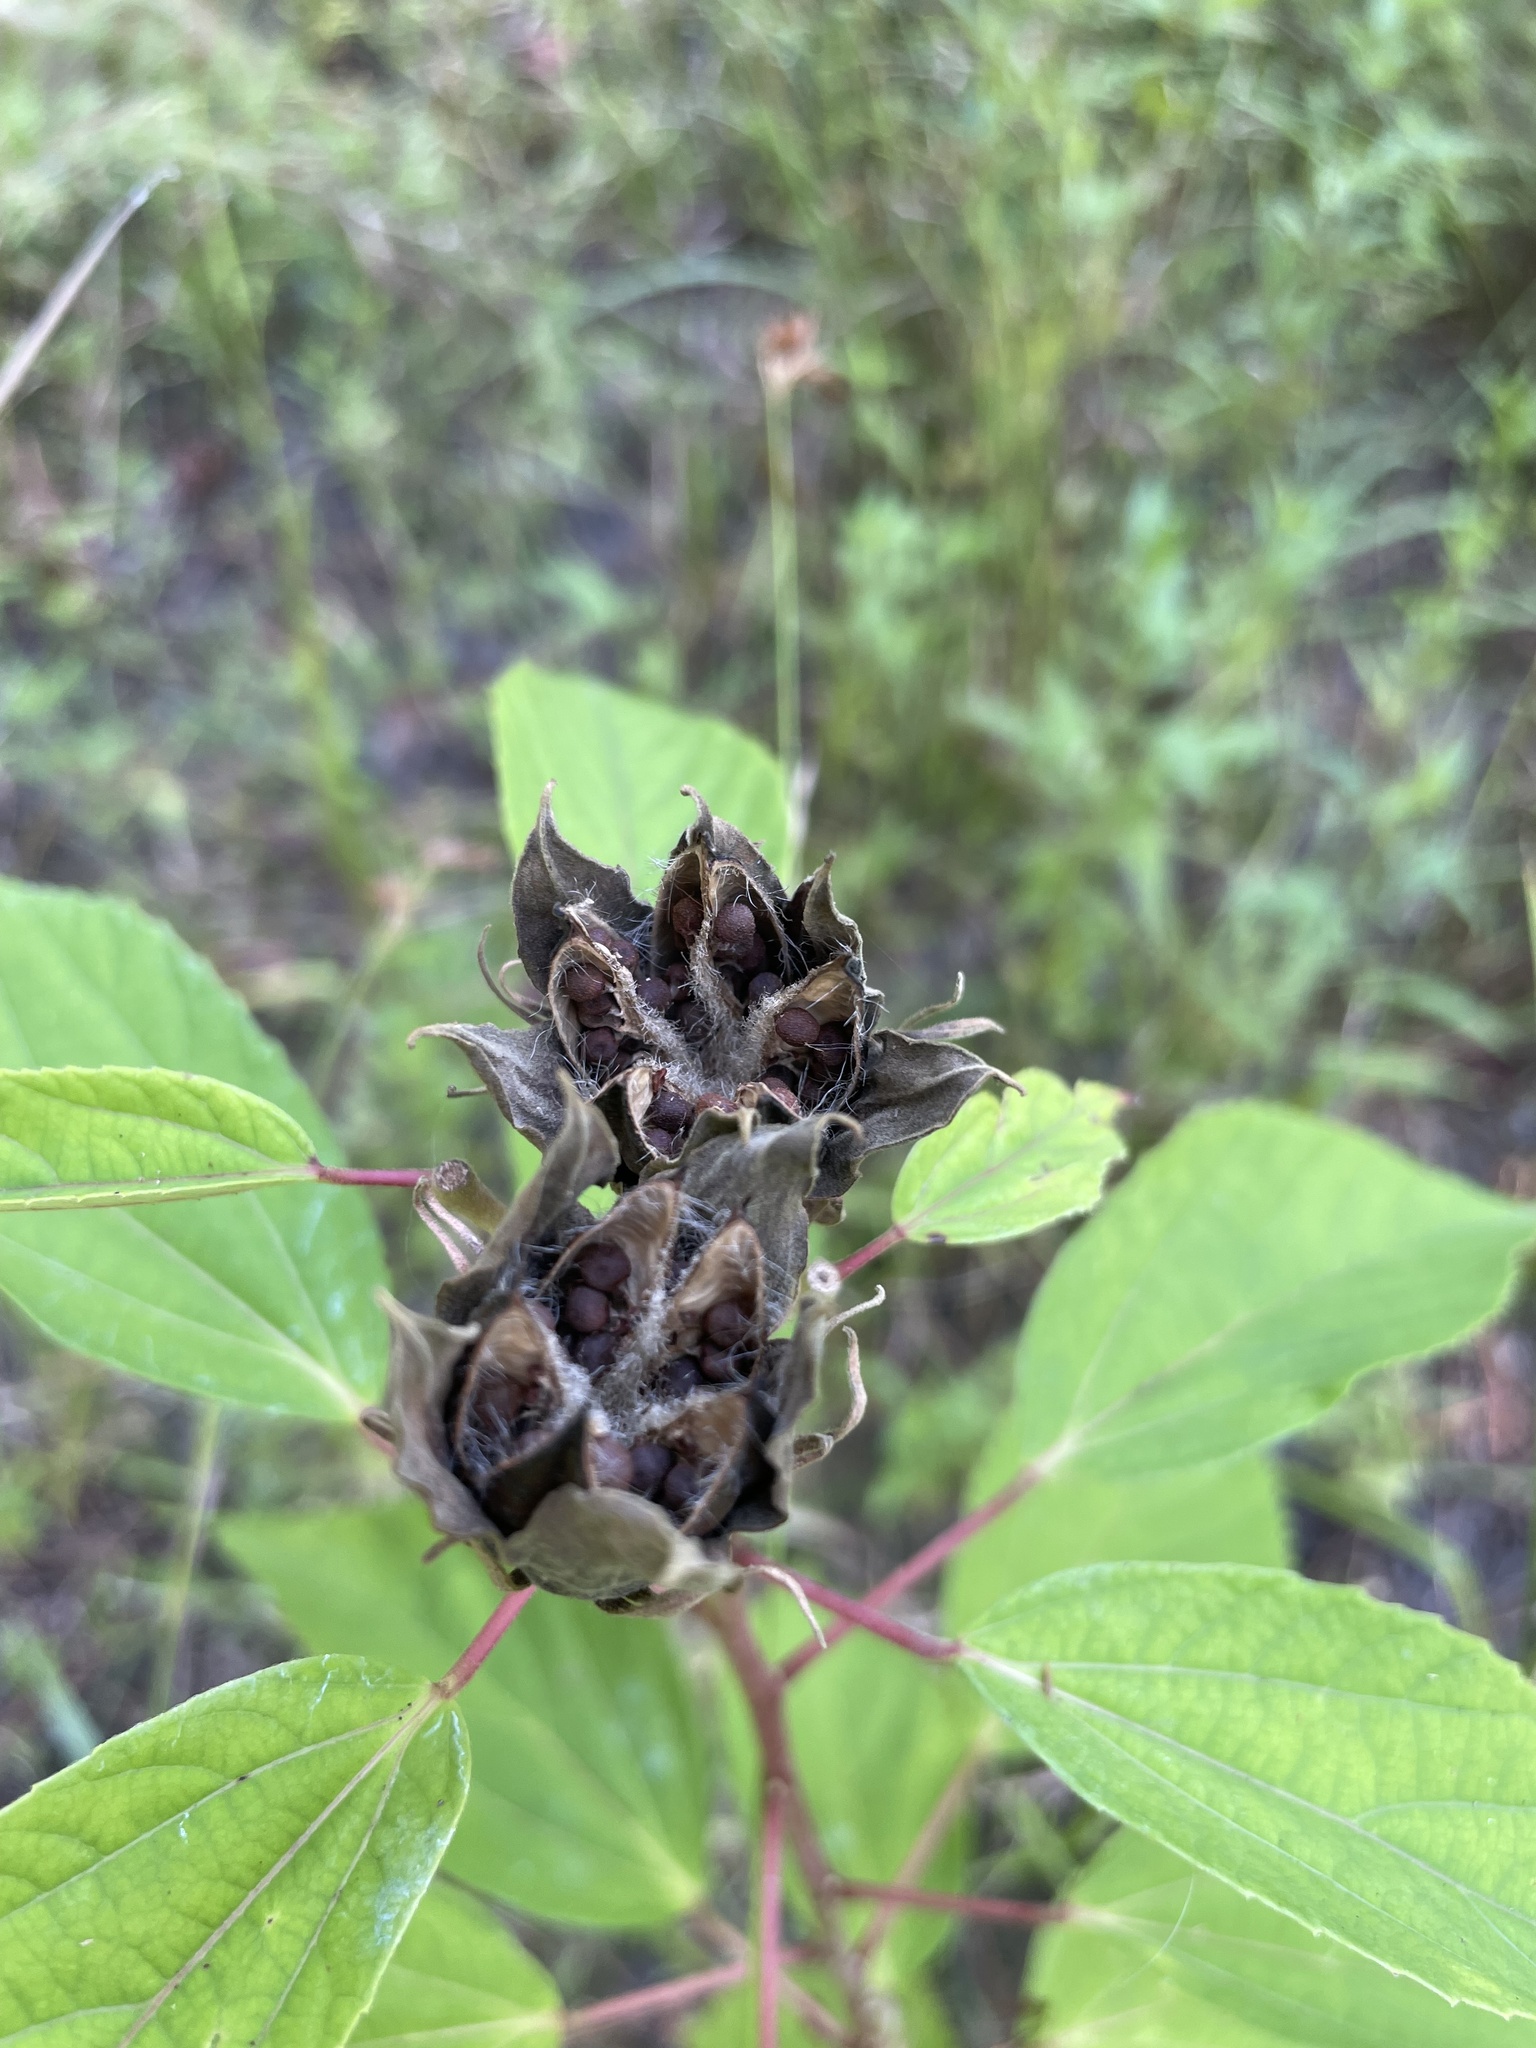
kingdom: Plantae
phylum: Tracheophyta
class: Magnoliopsida
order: Malvales
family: Malvaceae
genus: Hibiscus
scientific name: Hibiscus moscheutos
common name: Common rose-mallow
